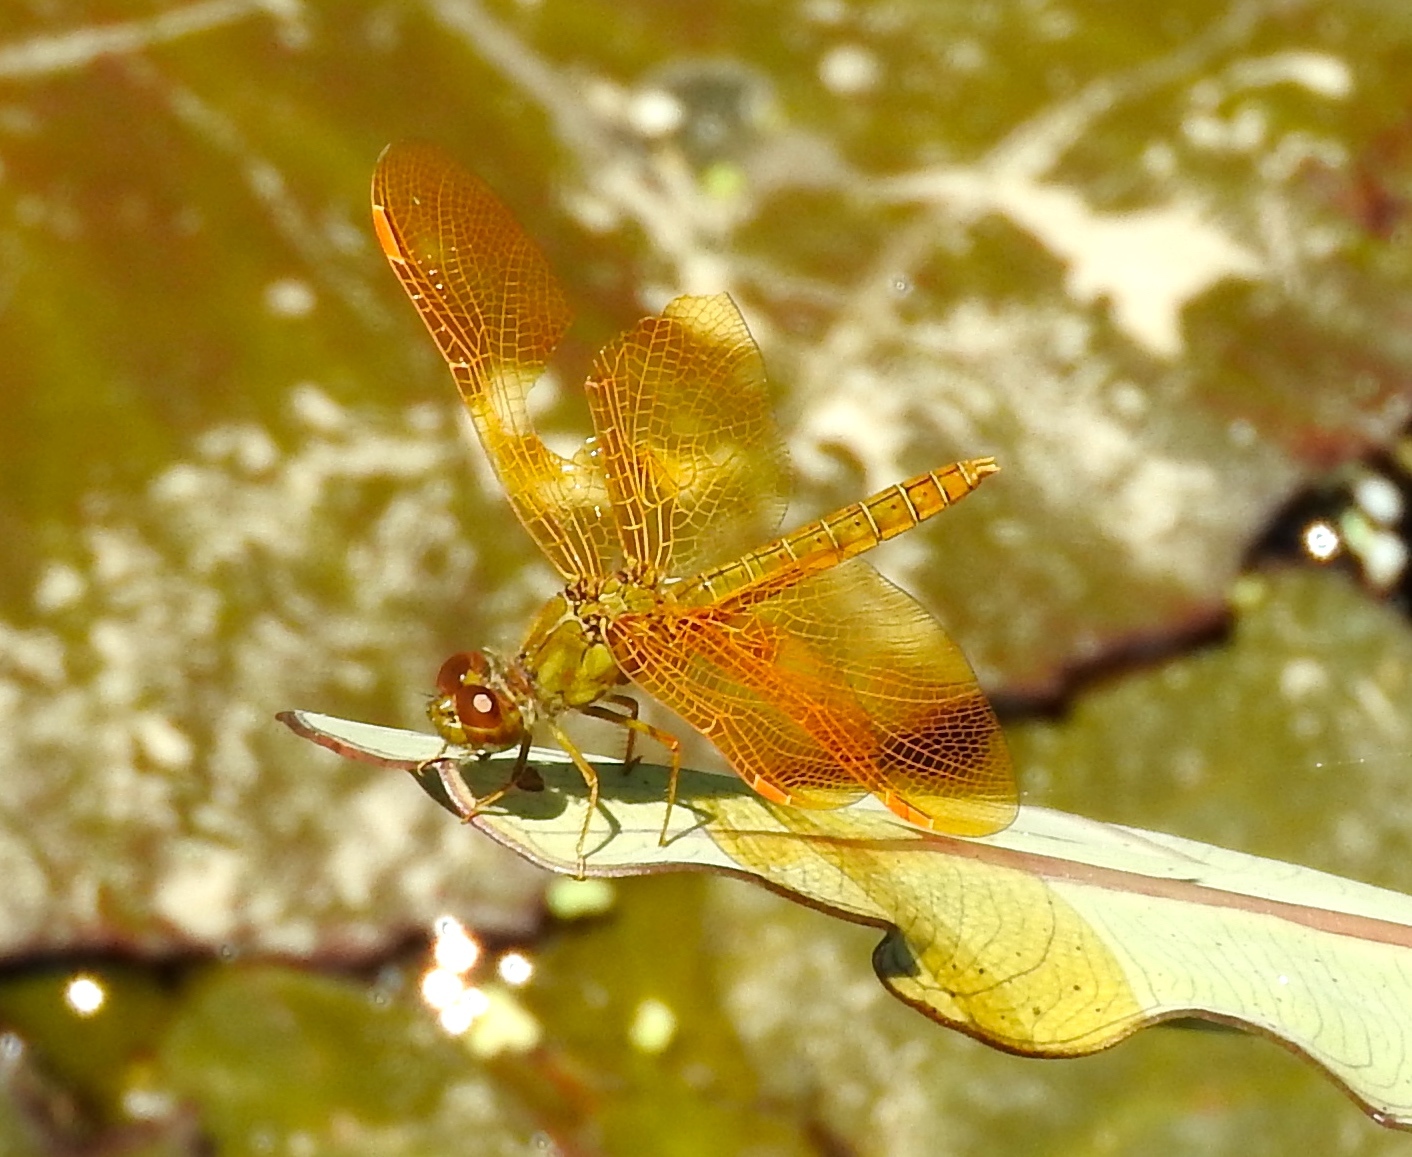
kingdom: Animalia
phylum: Arthropoda
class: Insecta
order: Odonata
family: Libellulidae
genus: Perithemis
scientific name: Perithemis intensa
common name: Mexican amberwing
